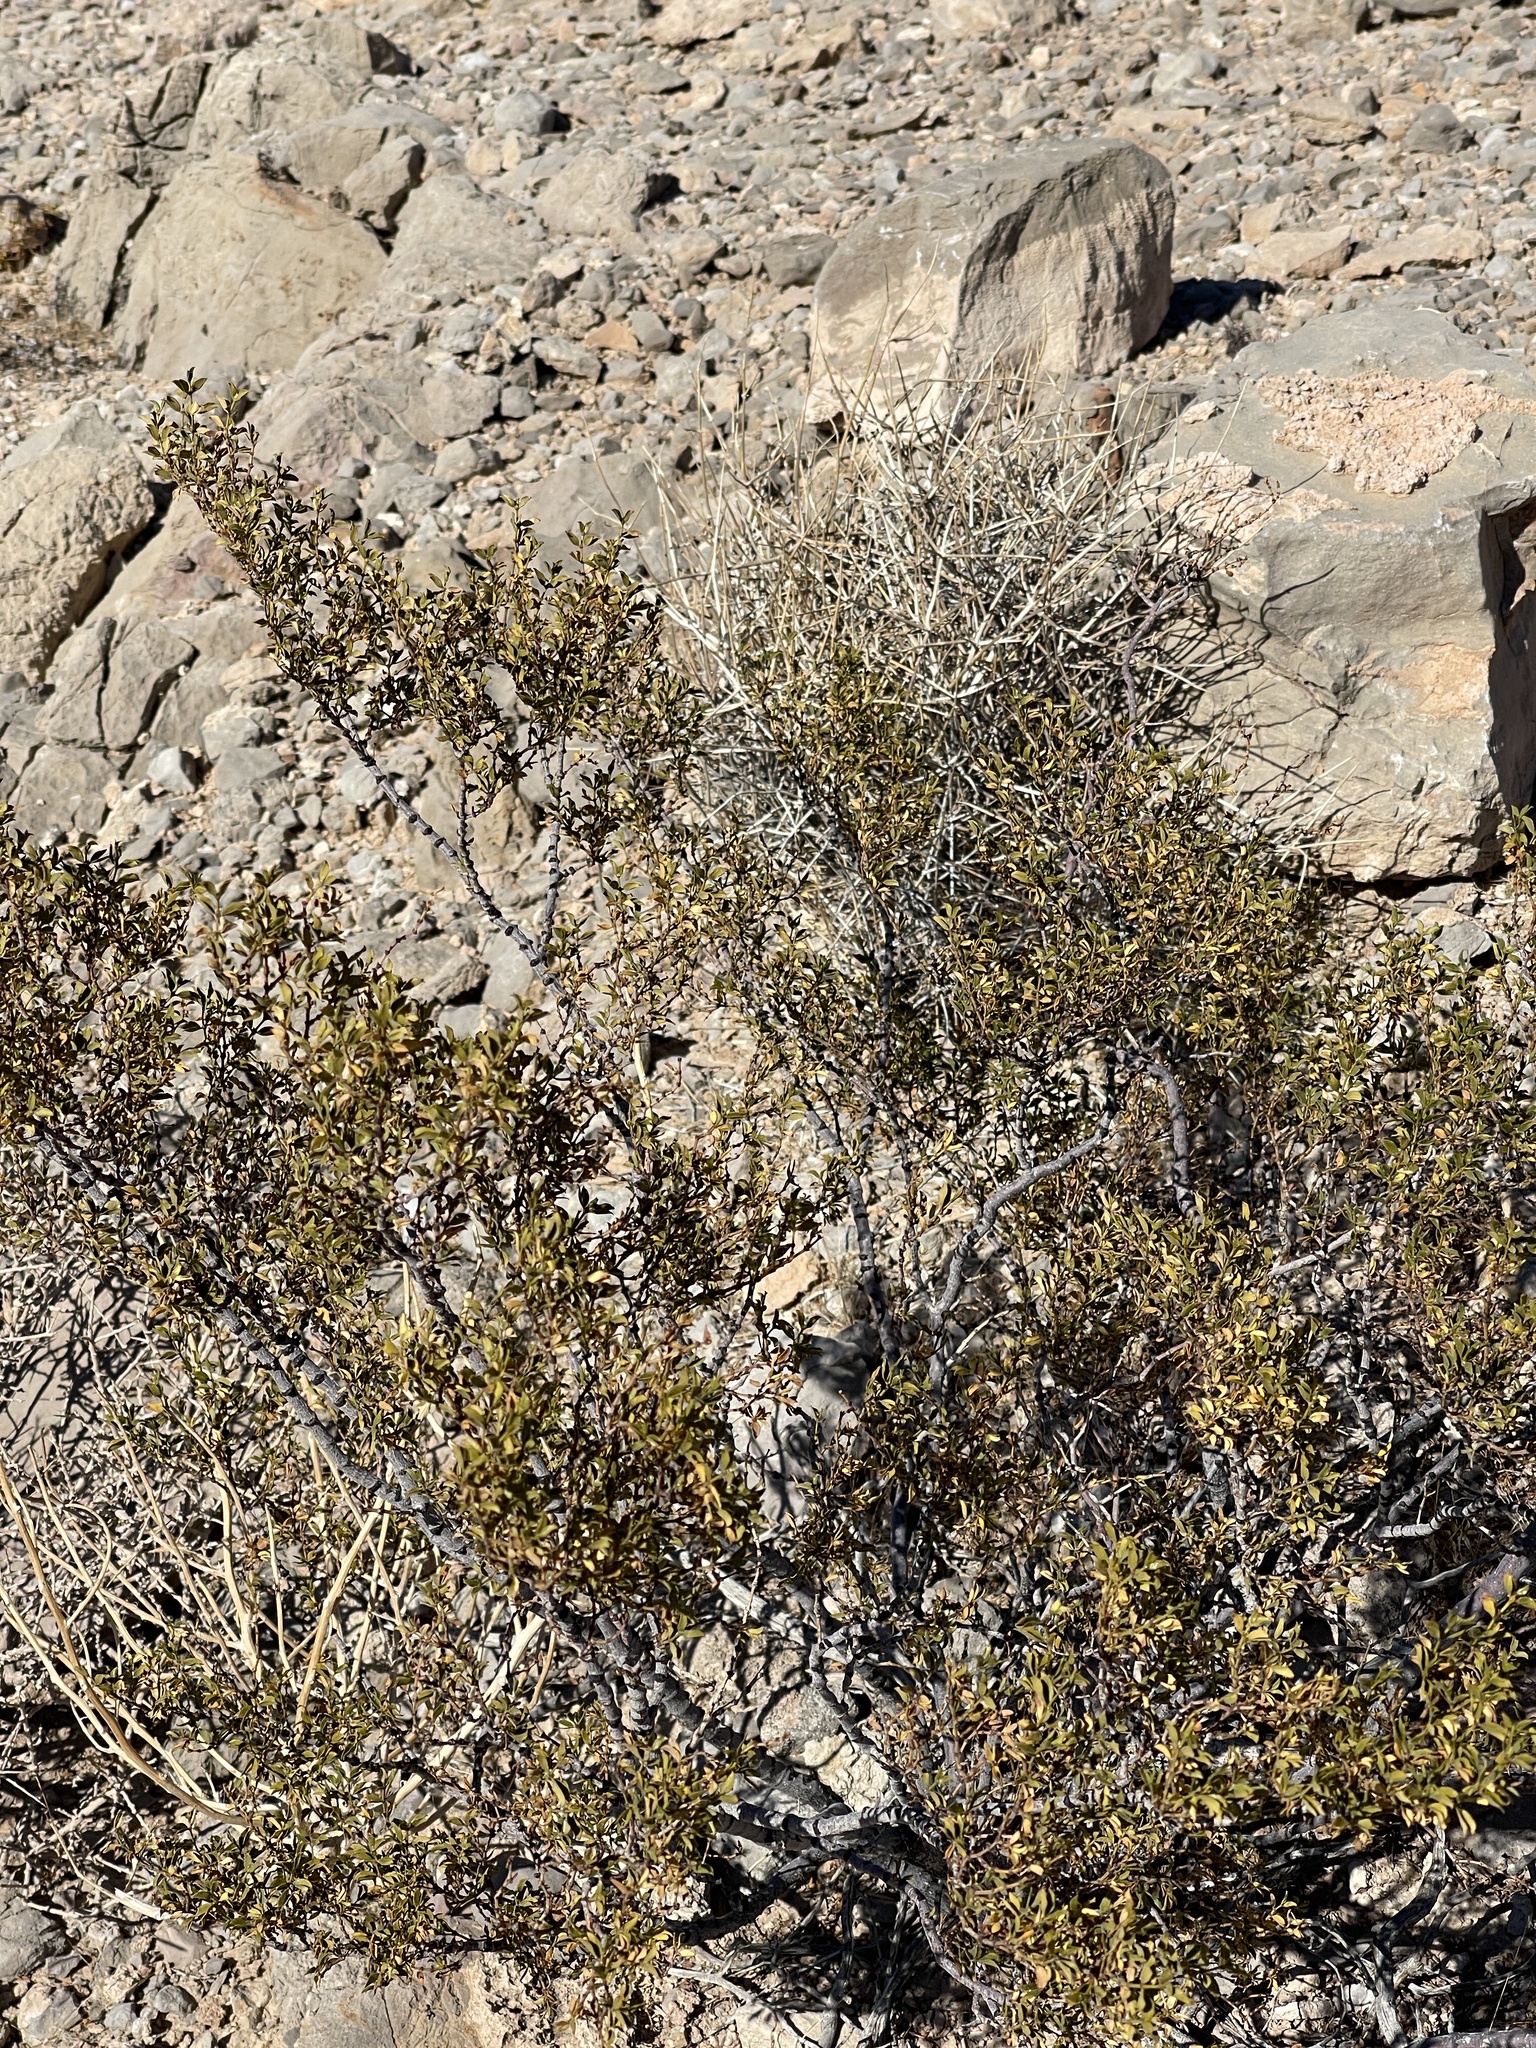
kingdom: Plantae
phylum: Tracheophyta
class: Magnoliopsida
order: Zygophyllales
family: Zygophyllaceae
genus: Larrea
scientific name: Larrea tridentata
